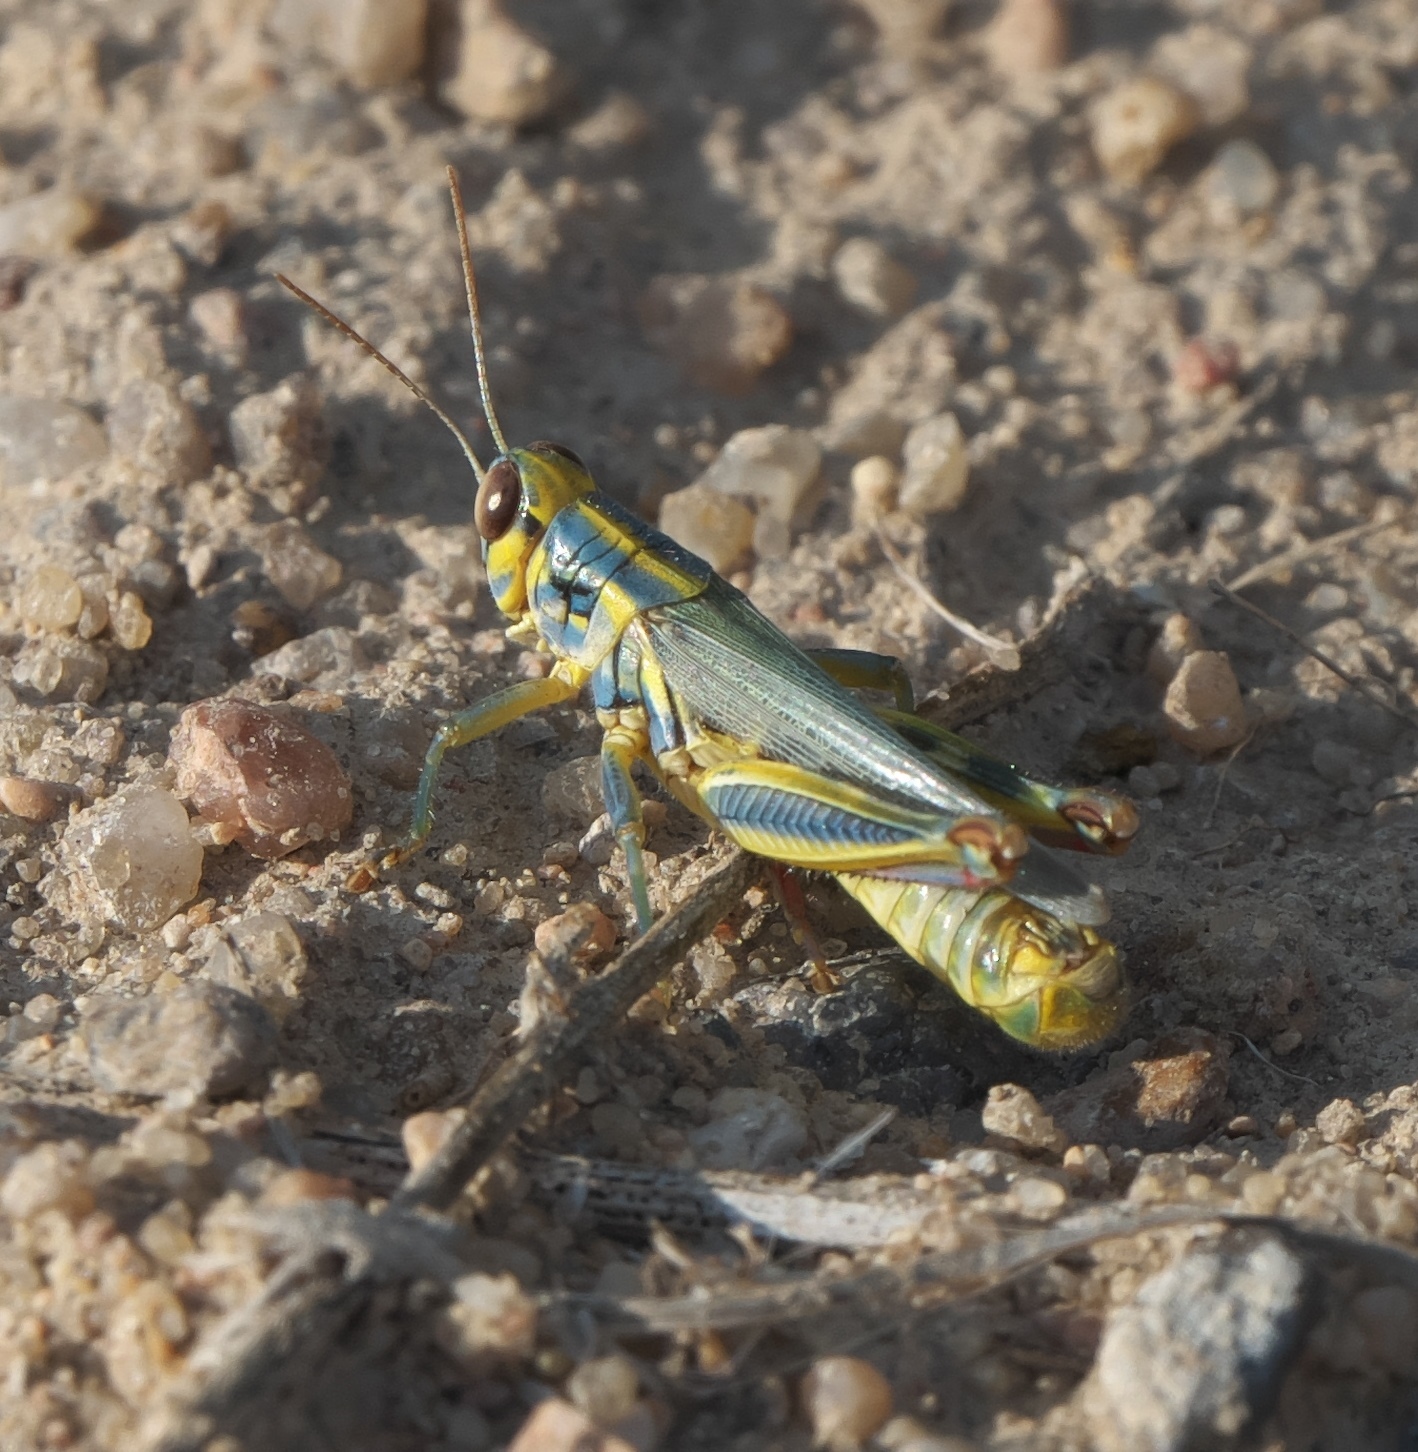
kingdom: Animalia
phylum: Arthropoda
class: Insecta
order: Orthoptera
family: Acrididae
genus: Melanoplus
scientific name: Melanoplus femurrubrum
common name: Red-legged grasshopper
